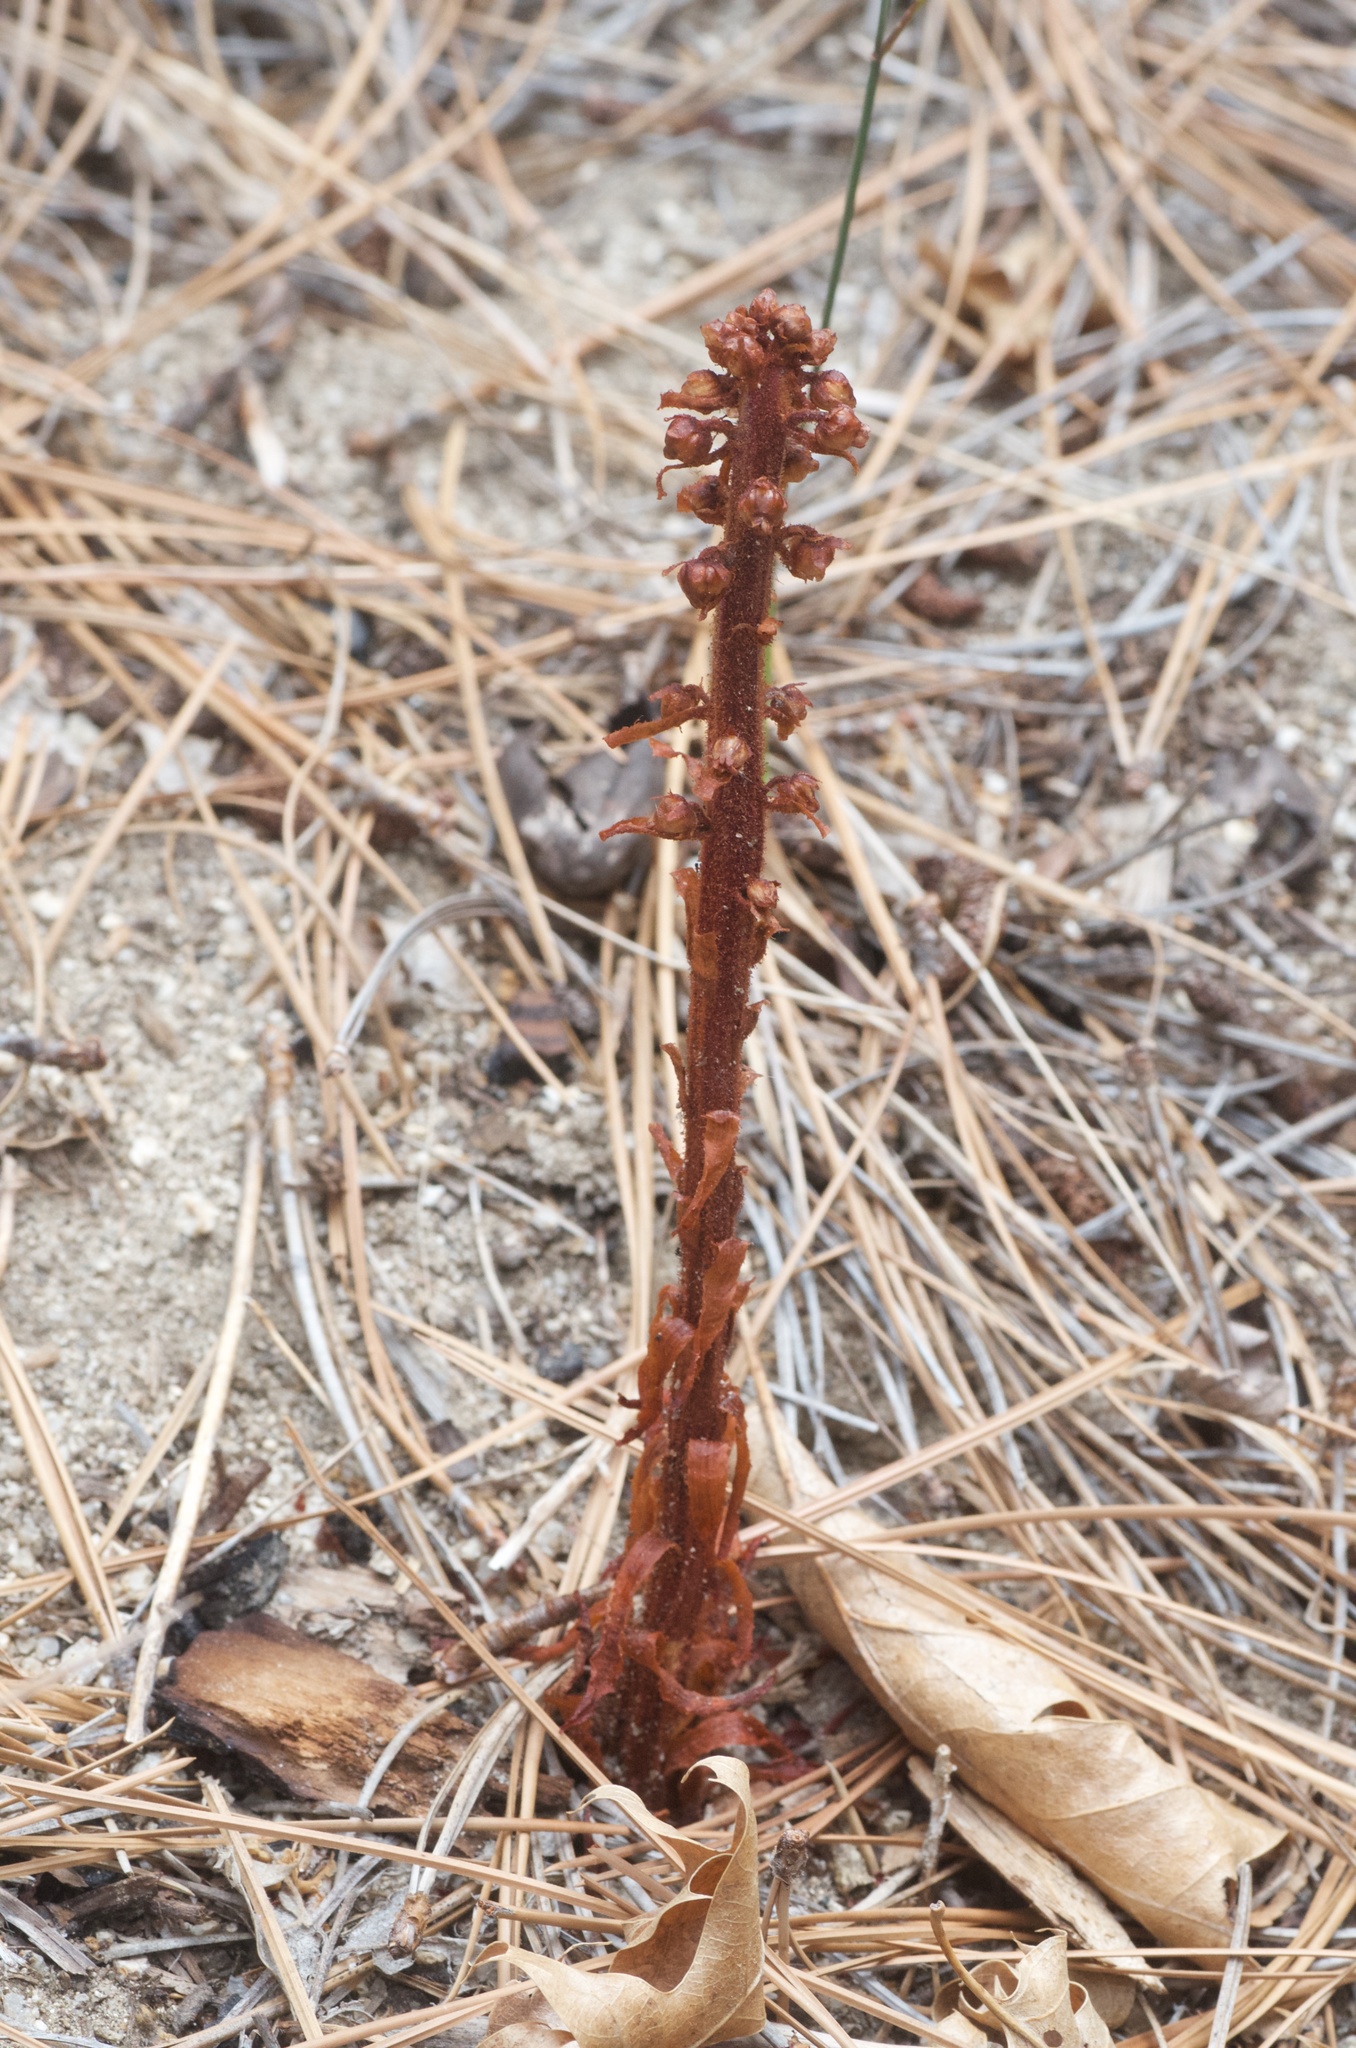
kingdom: Plantae
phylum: Tracheophyta
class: Magnoliopsida
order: Ericales
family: Ericaceae
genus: Pterospora
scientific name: Pterospora andromedea
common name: Giant bird's-nest
